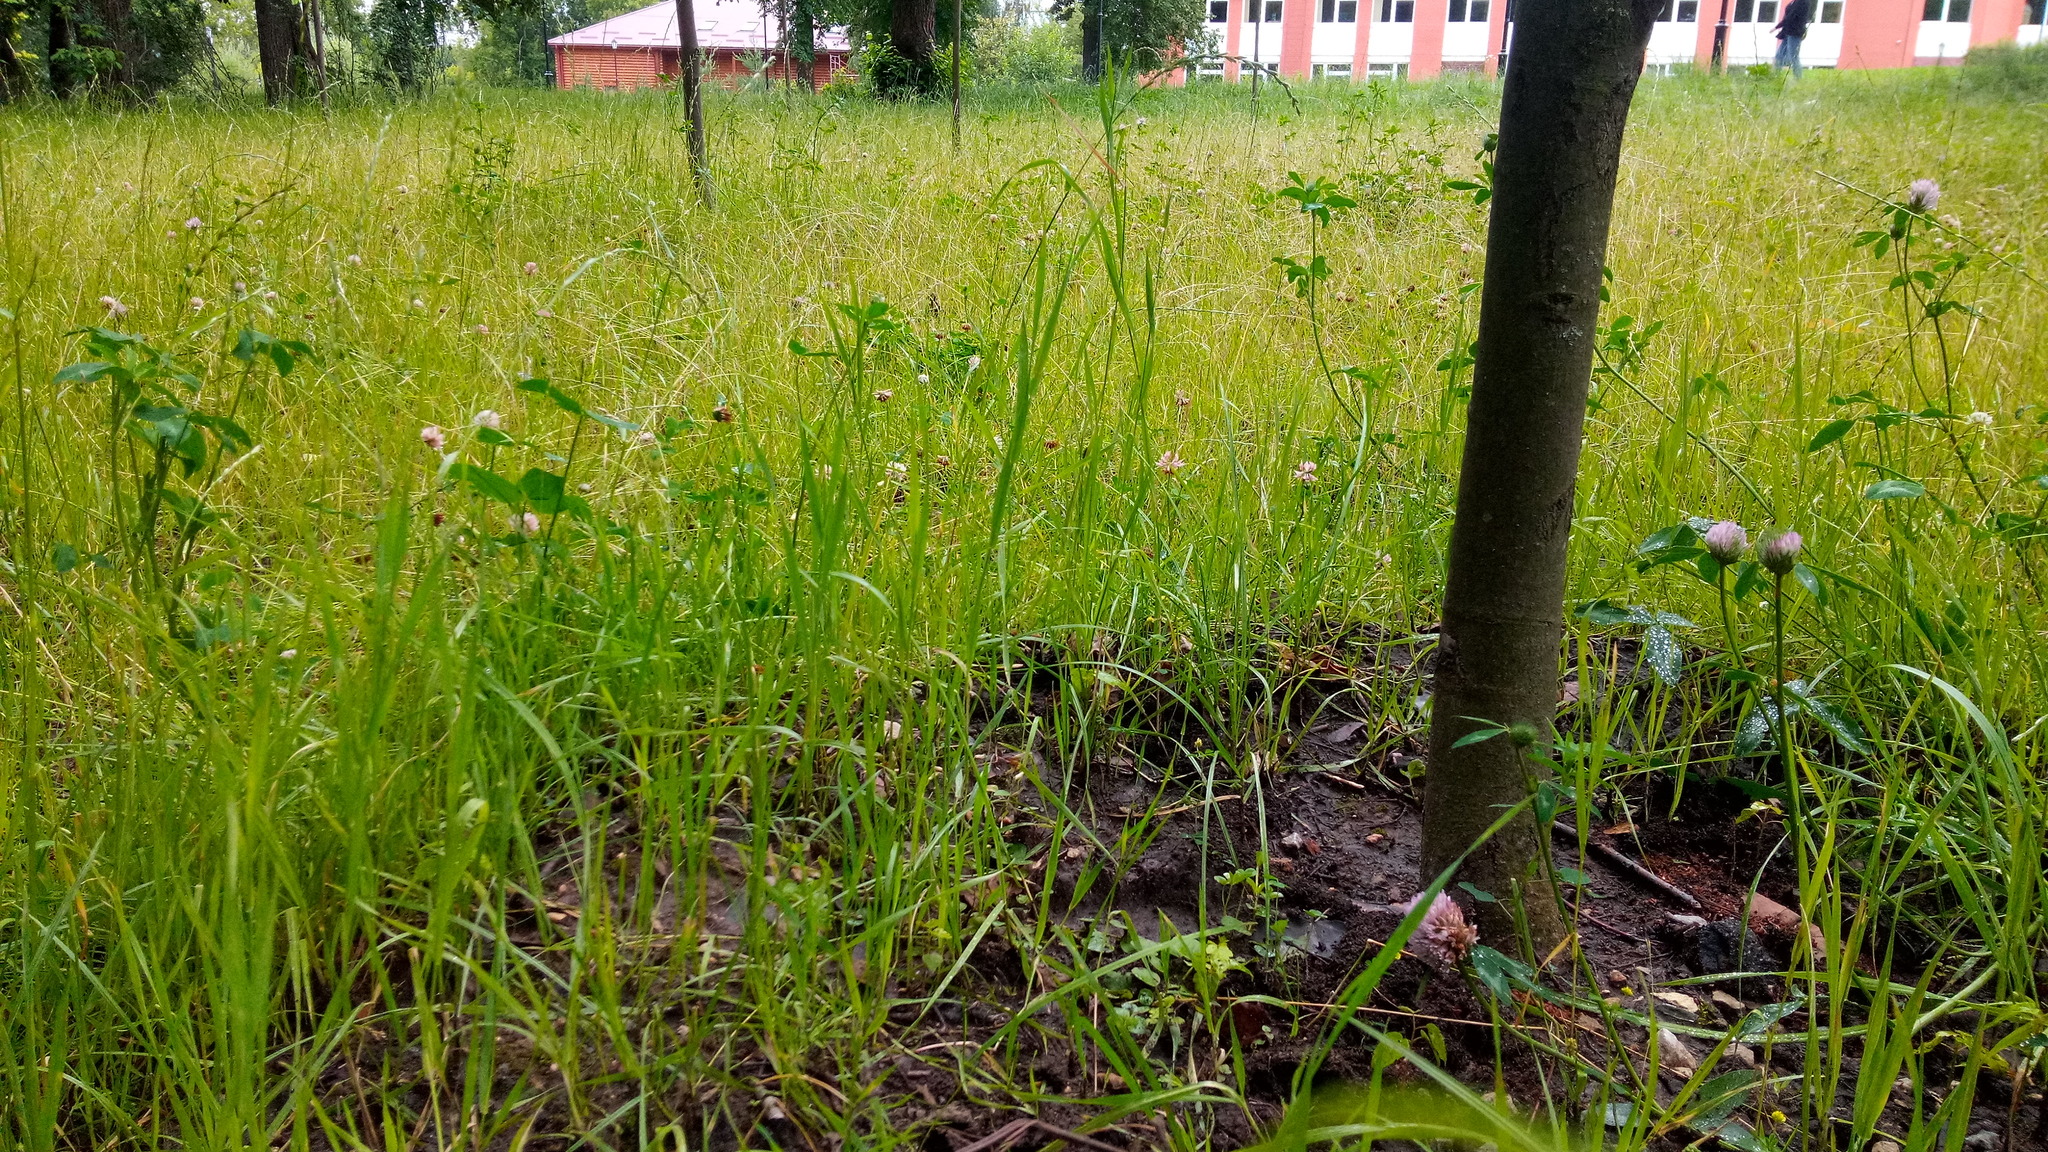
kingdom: Plantae
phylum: Tracheophyta
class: Magnoliopsida
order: Ericales
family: Primulaceae
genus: Lysimachia
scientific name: Lysimachia nummularia
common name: Moneywort
